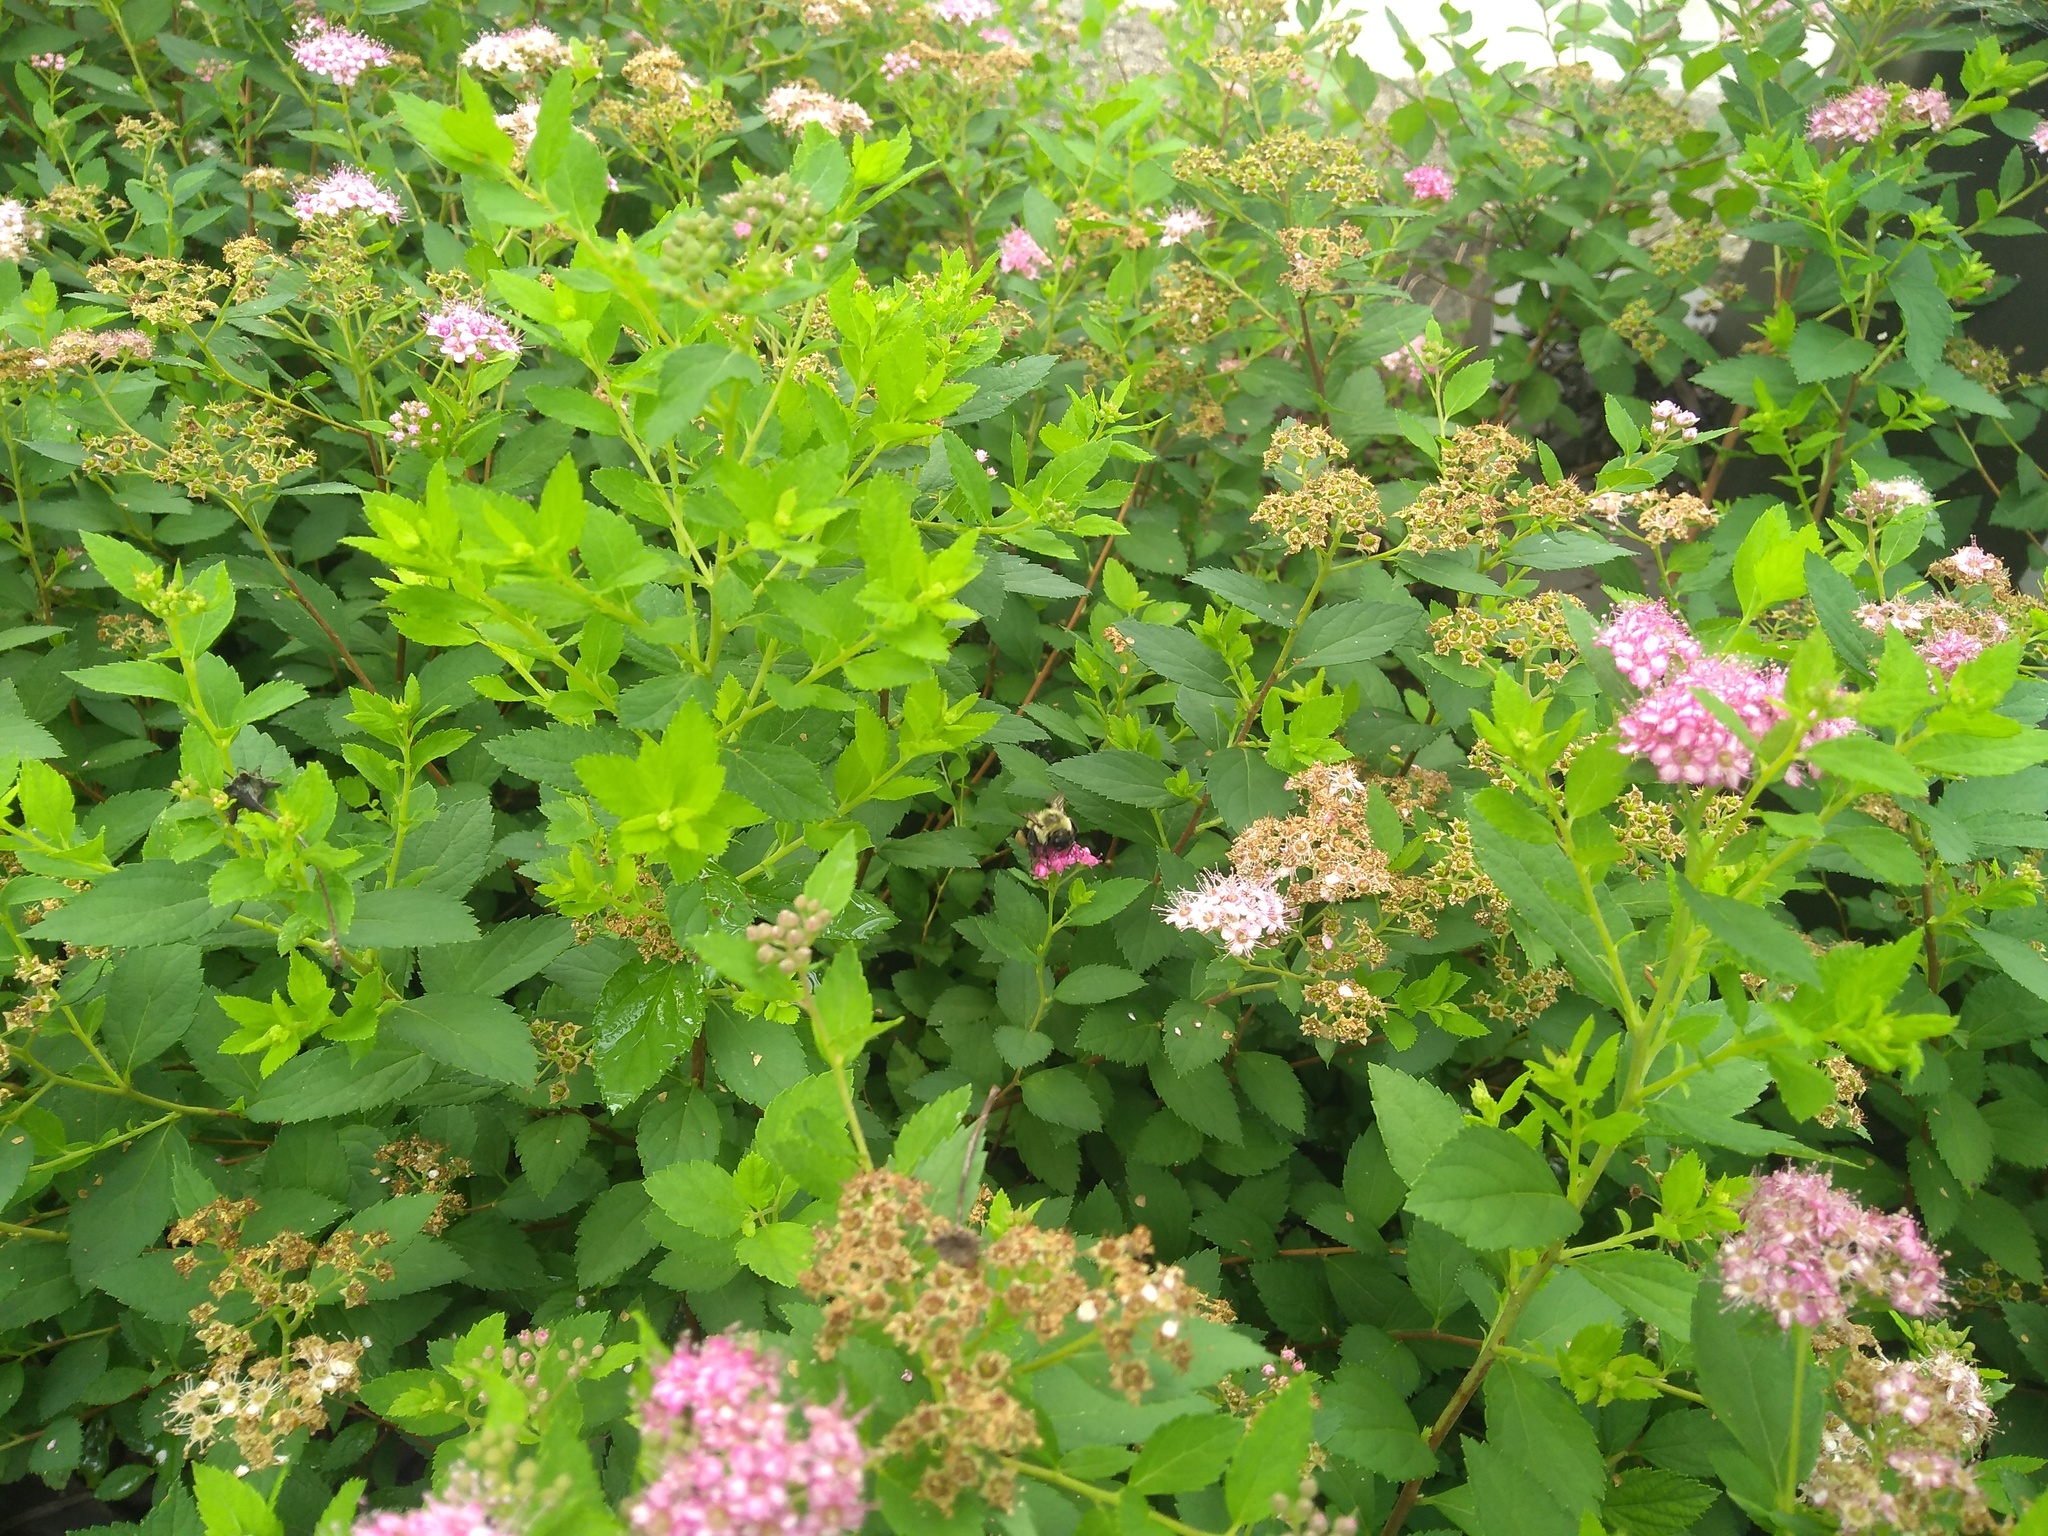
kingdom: Animalia
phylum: Arthropoda
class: Insecta
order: Hymenoptera
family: Apidae
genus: Bombus
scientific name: Bombus impatiens
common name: Common eastern bumble bee
